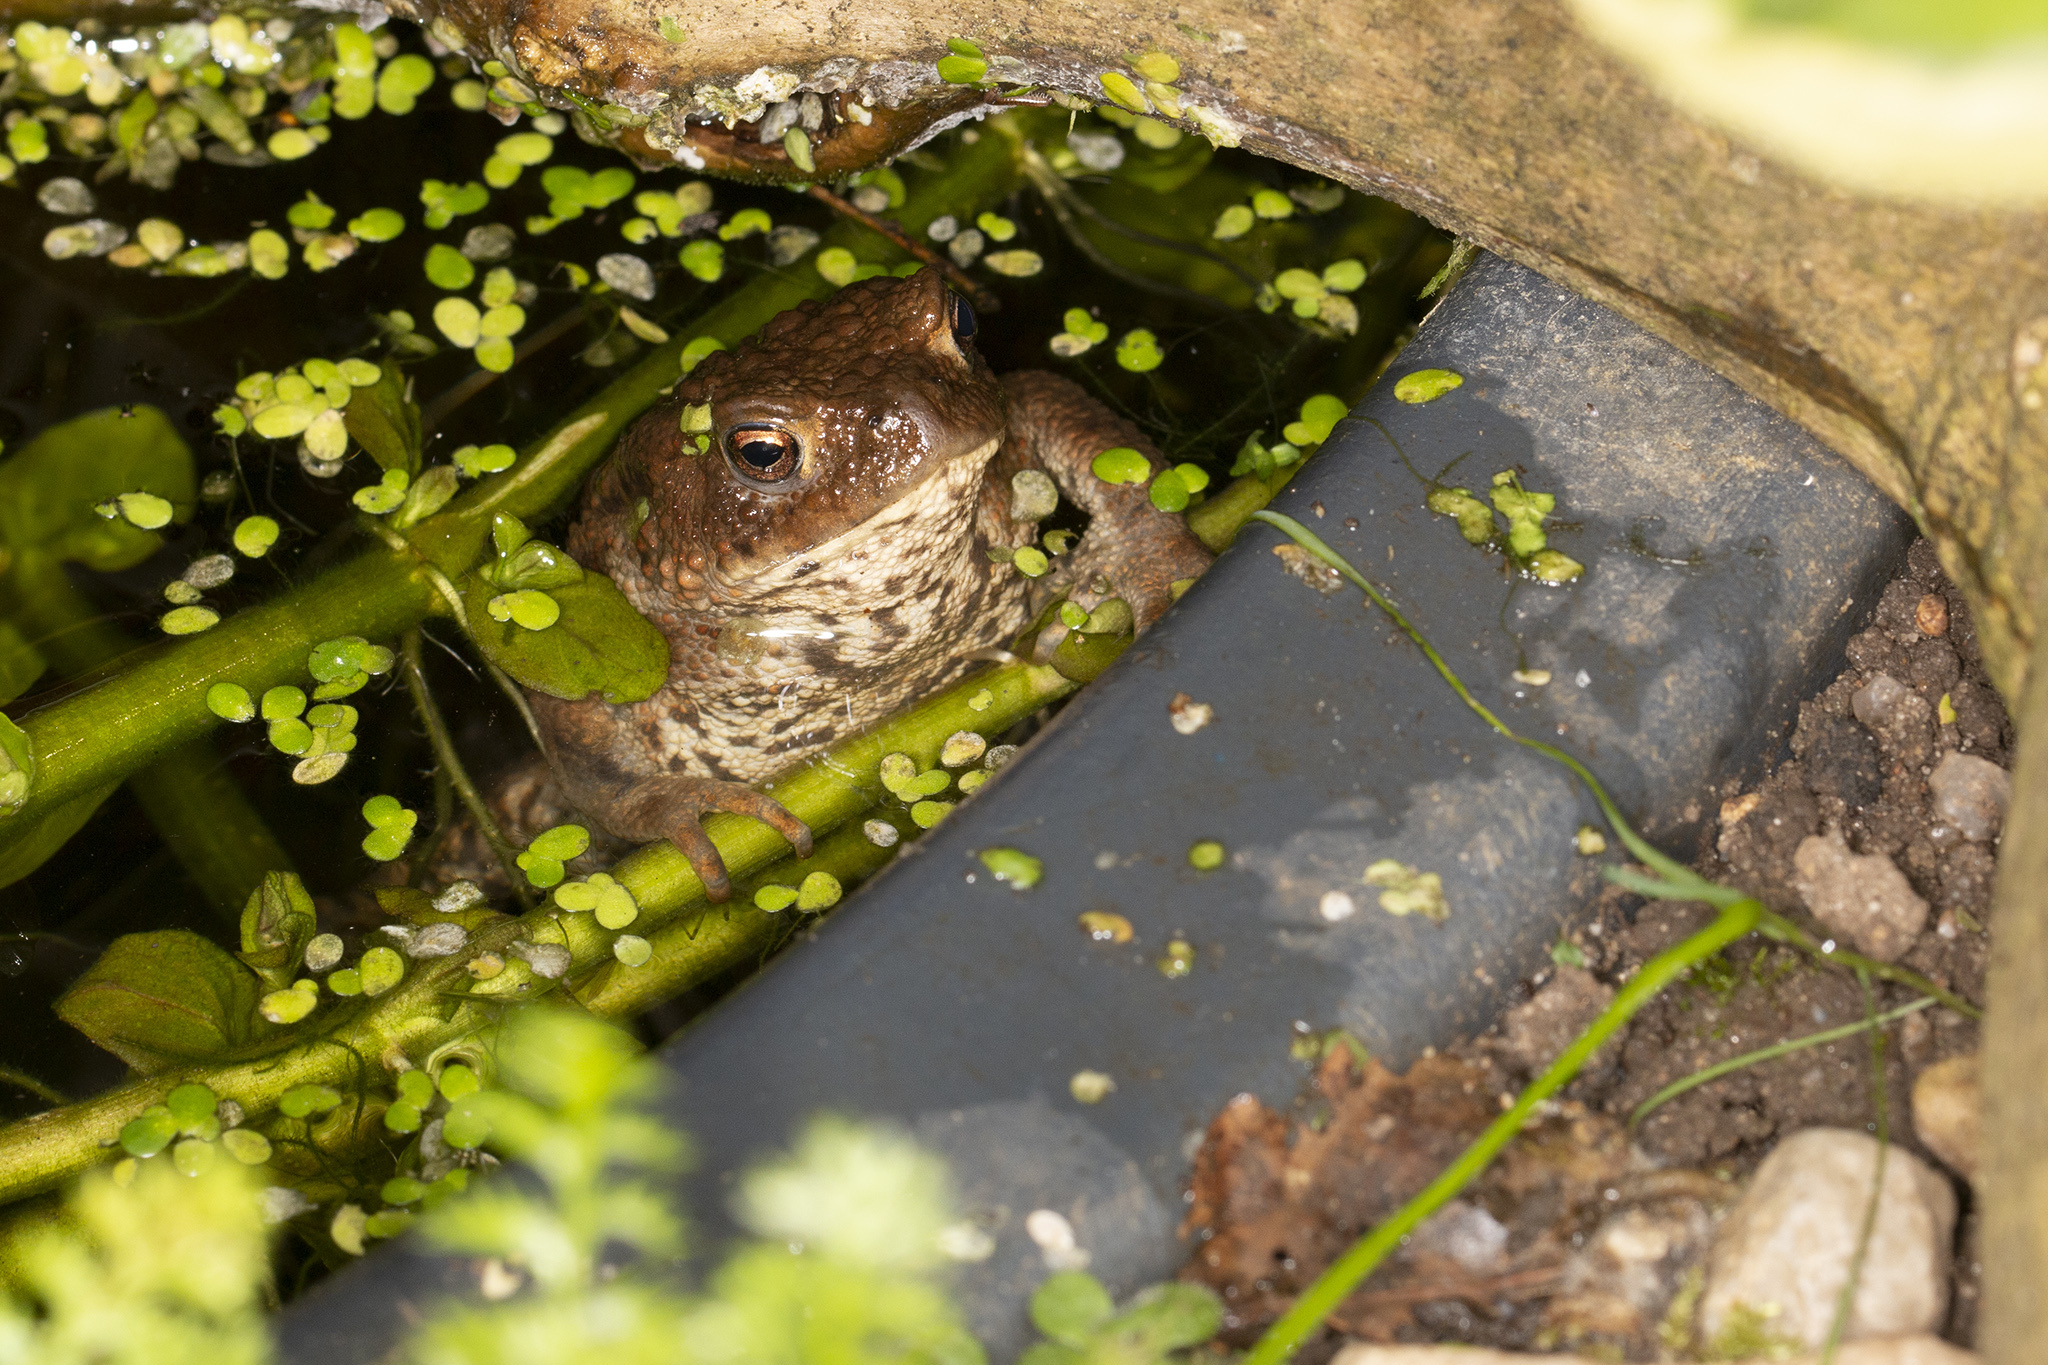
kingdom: Animalia
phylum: Chordata
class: Amphibia
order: Anura
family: Bufonidae
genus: Bufo
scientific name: Bufo bufo
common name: Common toad
